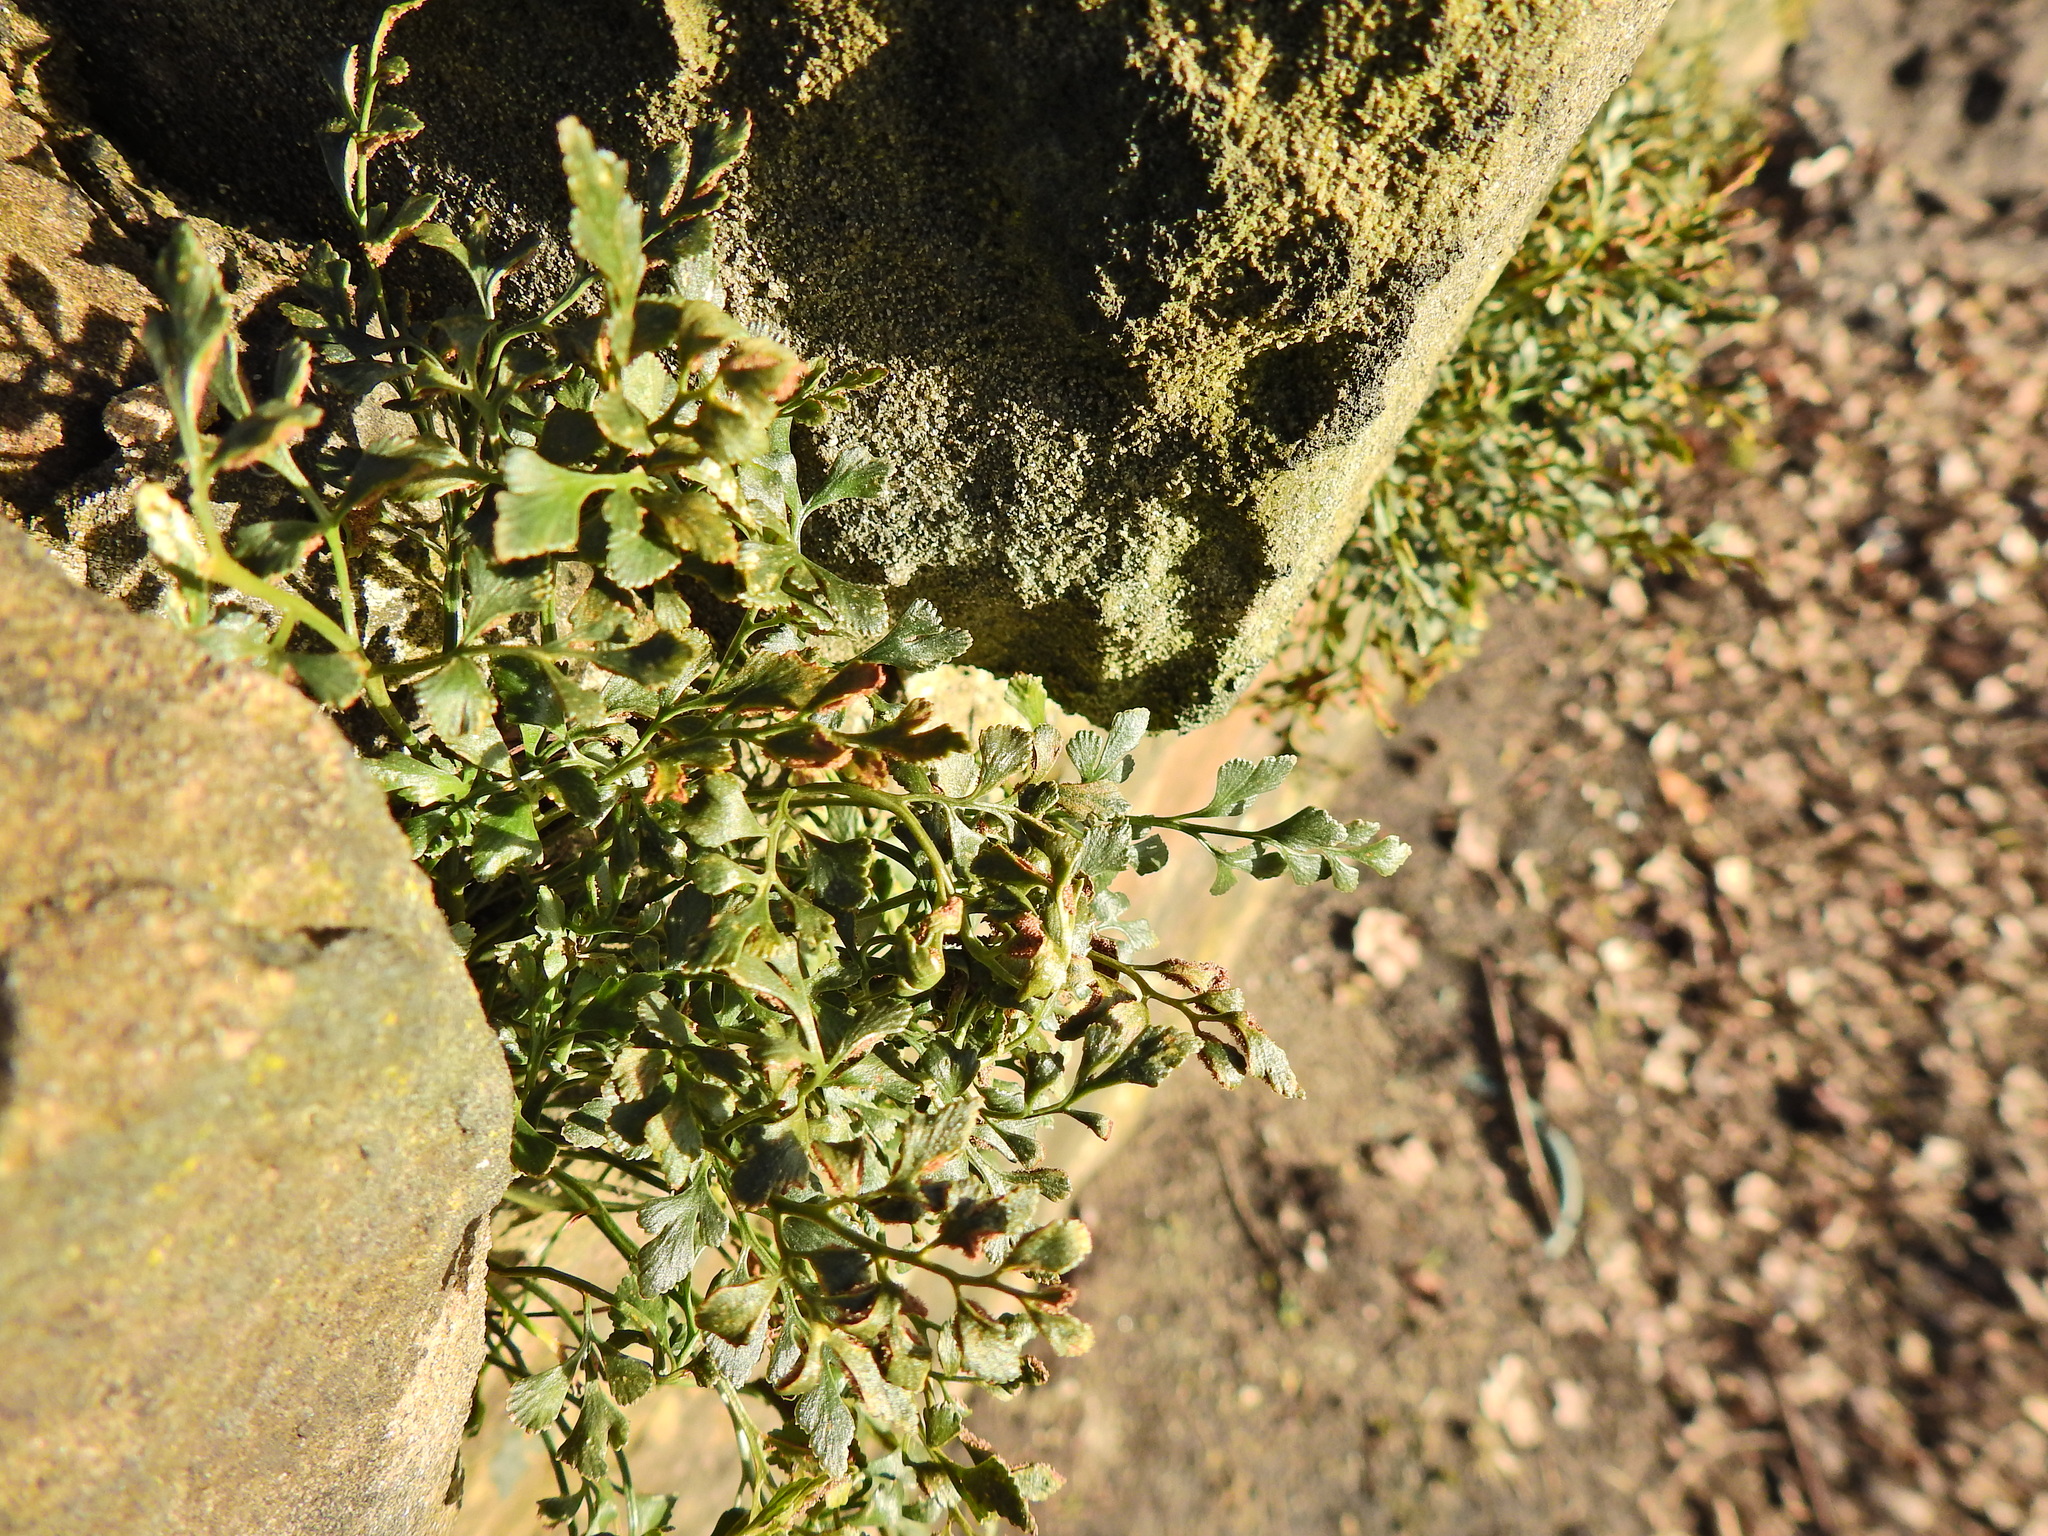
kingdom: Plantae
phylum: Tracheophyta
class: Polypodiopsida
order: Polypodiales
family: Aspleniaceae
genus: Asplenium
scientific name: Asplenium ruta-muraria
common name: Wall-rue
